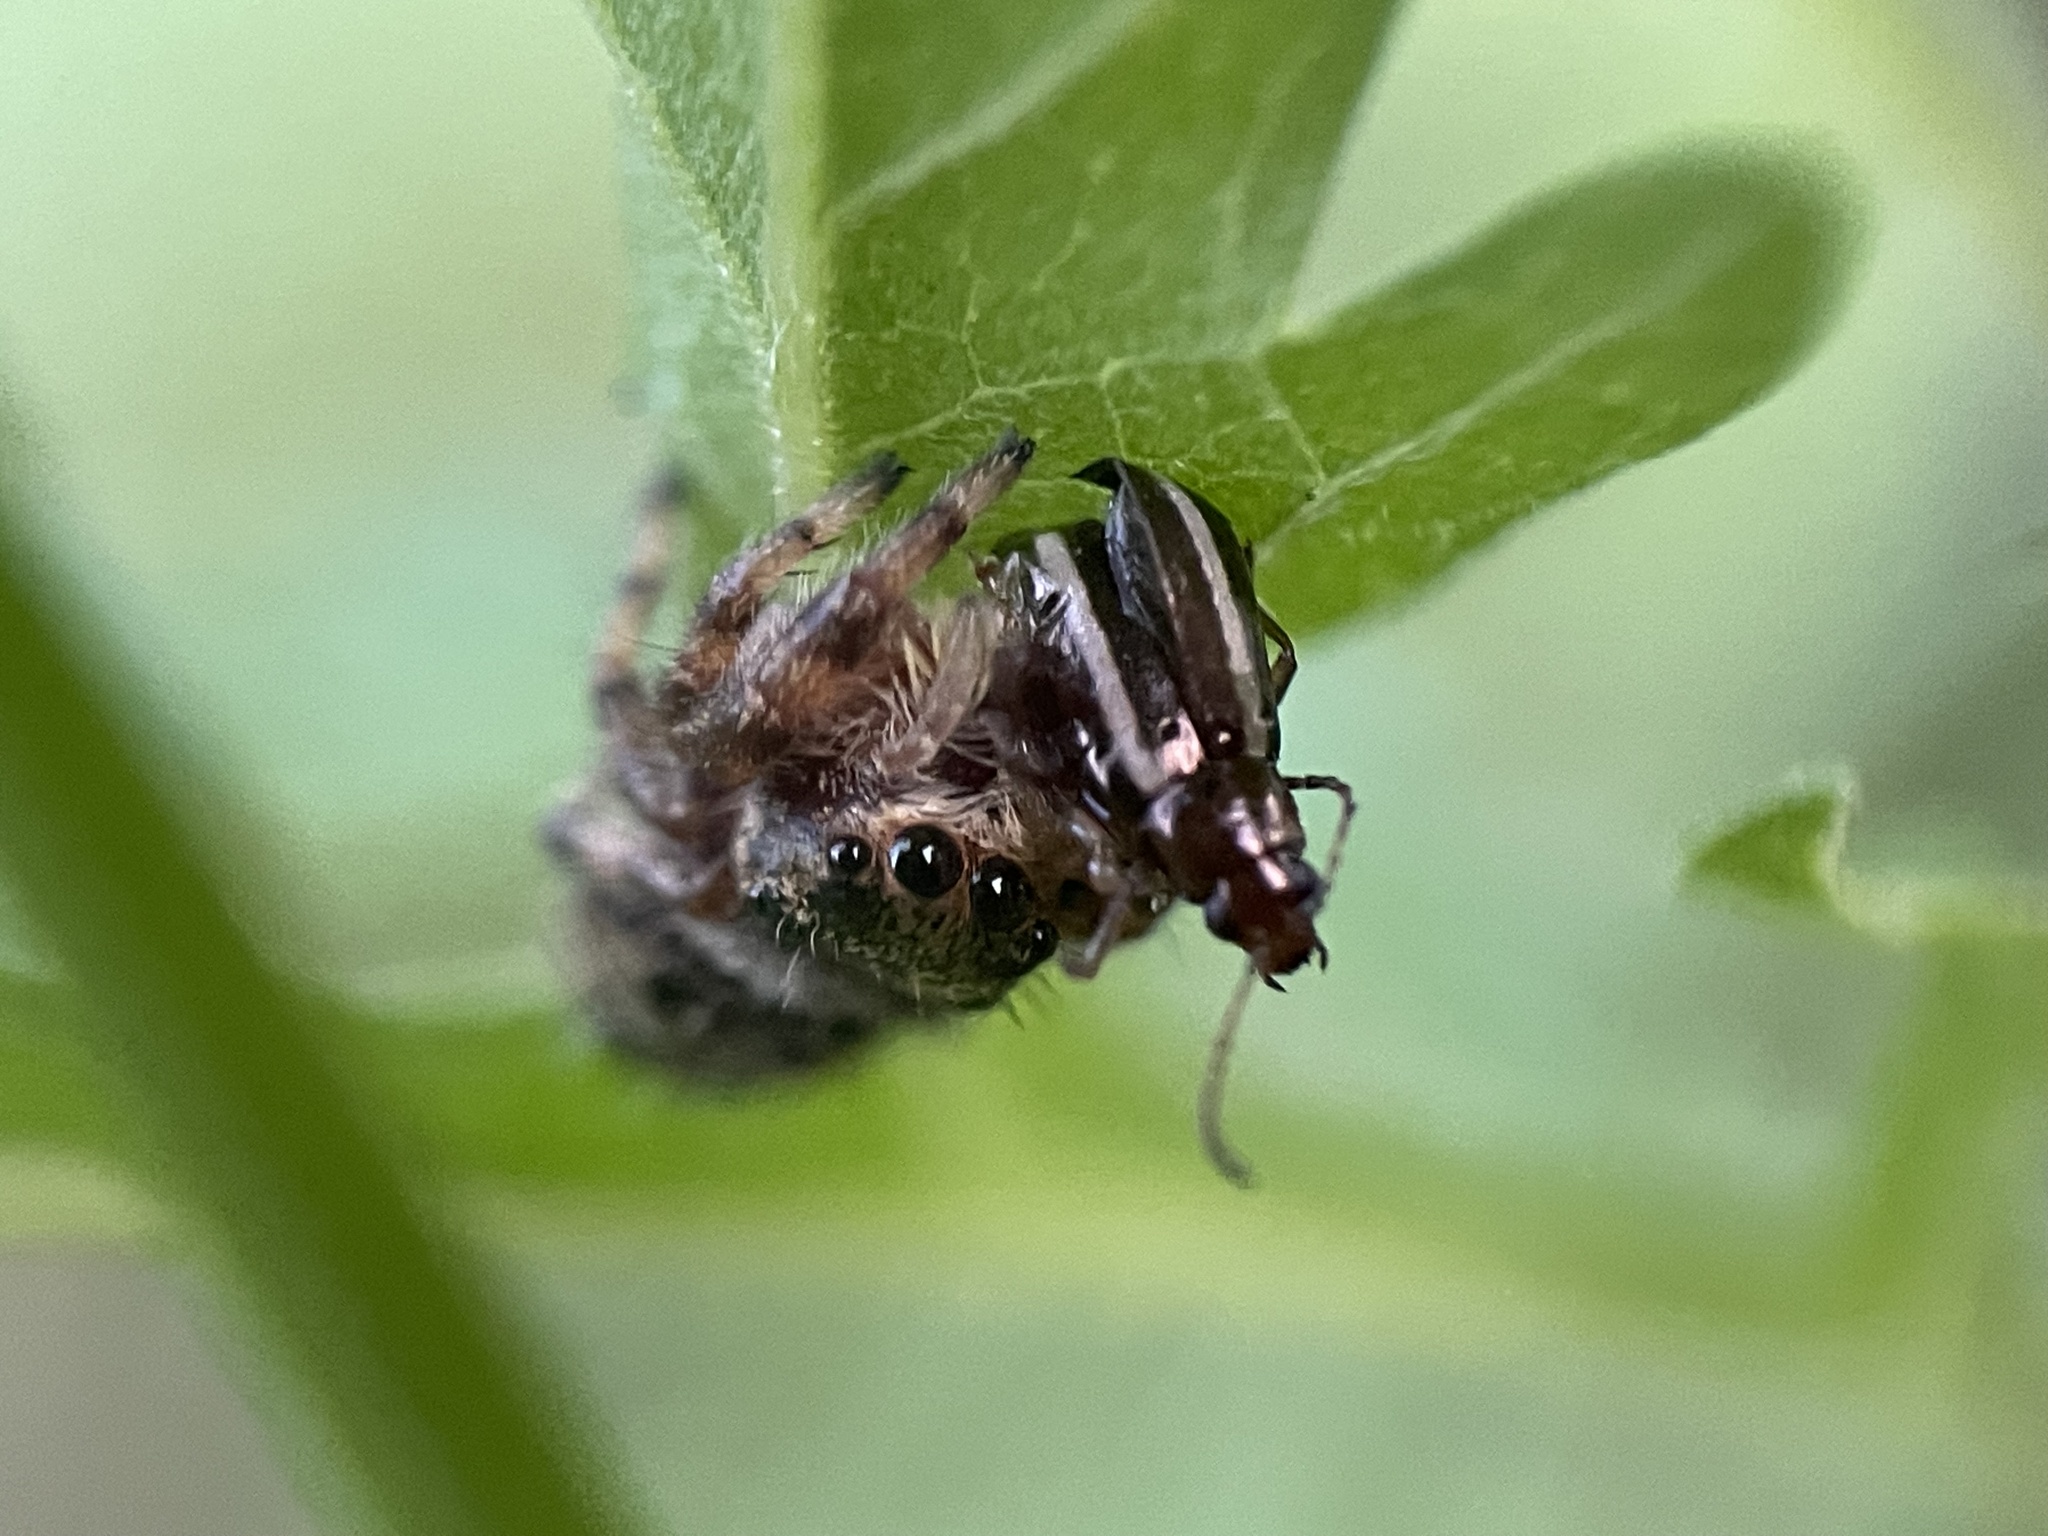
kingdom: Animalia
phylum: Arthropoda
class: Arachnida
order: Araneae
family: Salticidae
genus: Phidippus
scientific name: Phidippus clarus
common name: Brilliant jumping spider
